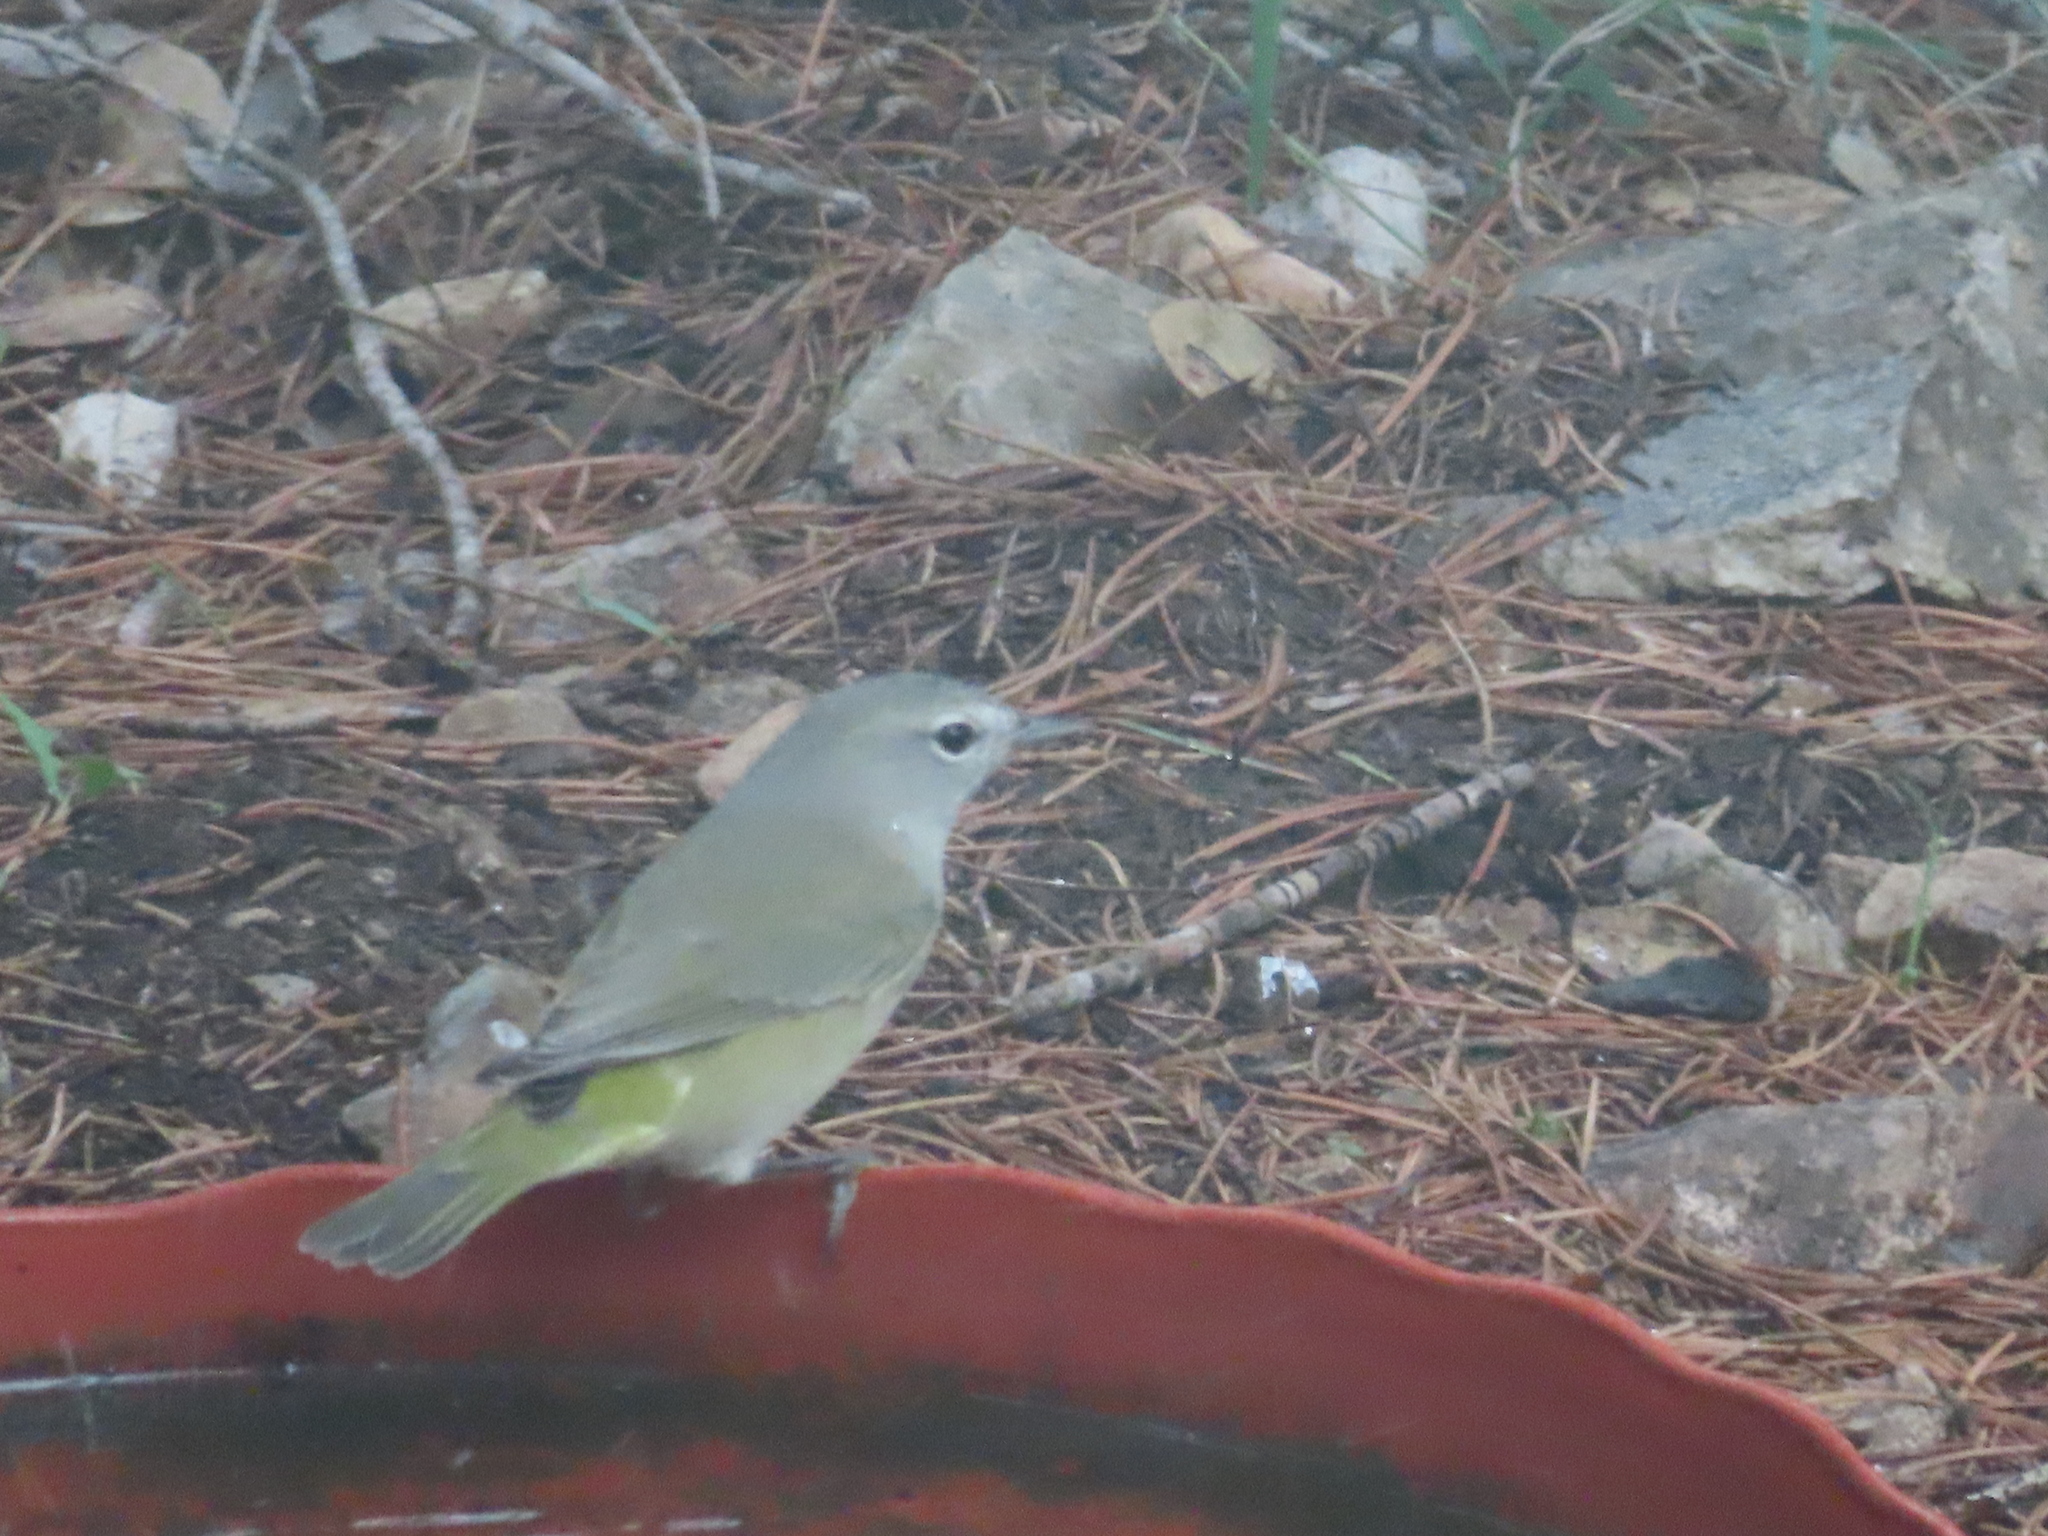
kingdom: Animalia
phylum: Chordata
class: Aves
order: Passeriformes
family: Parulidae
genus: Leiothlypis
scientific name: Leiothlypis celata
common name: Orange-crowned warbler
